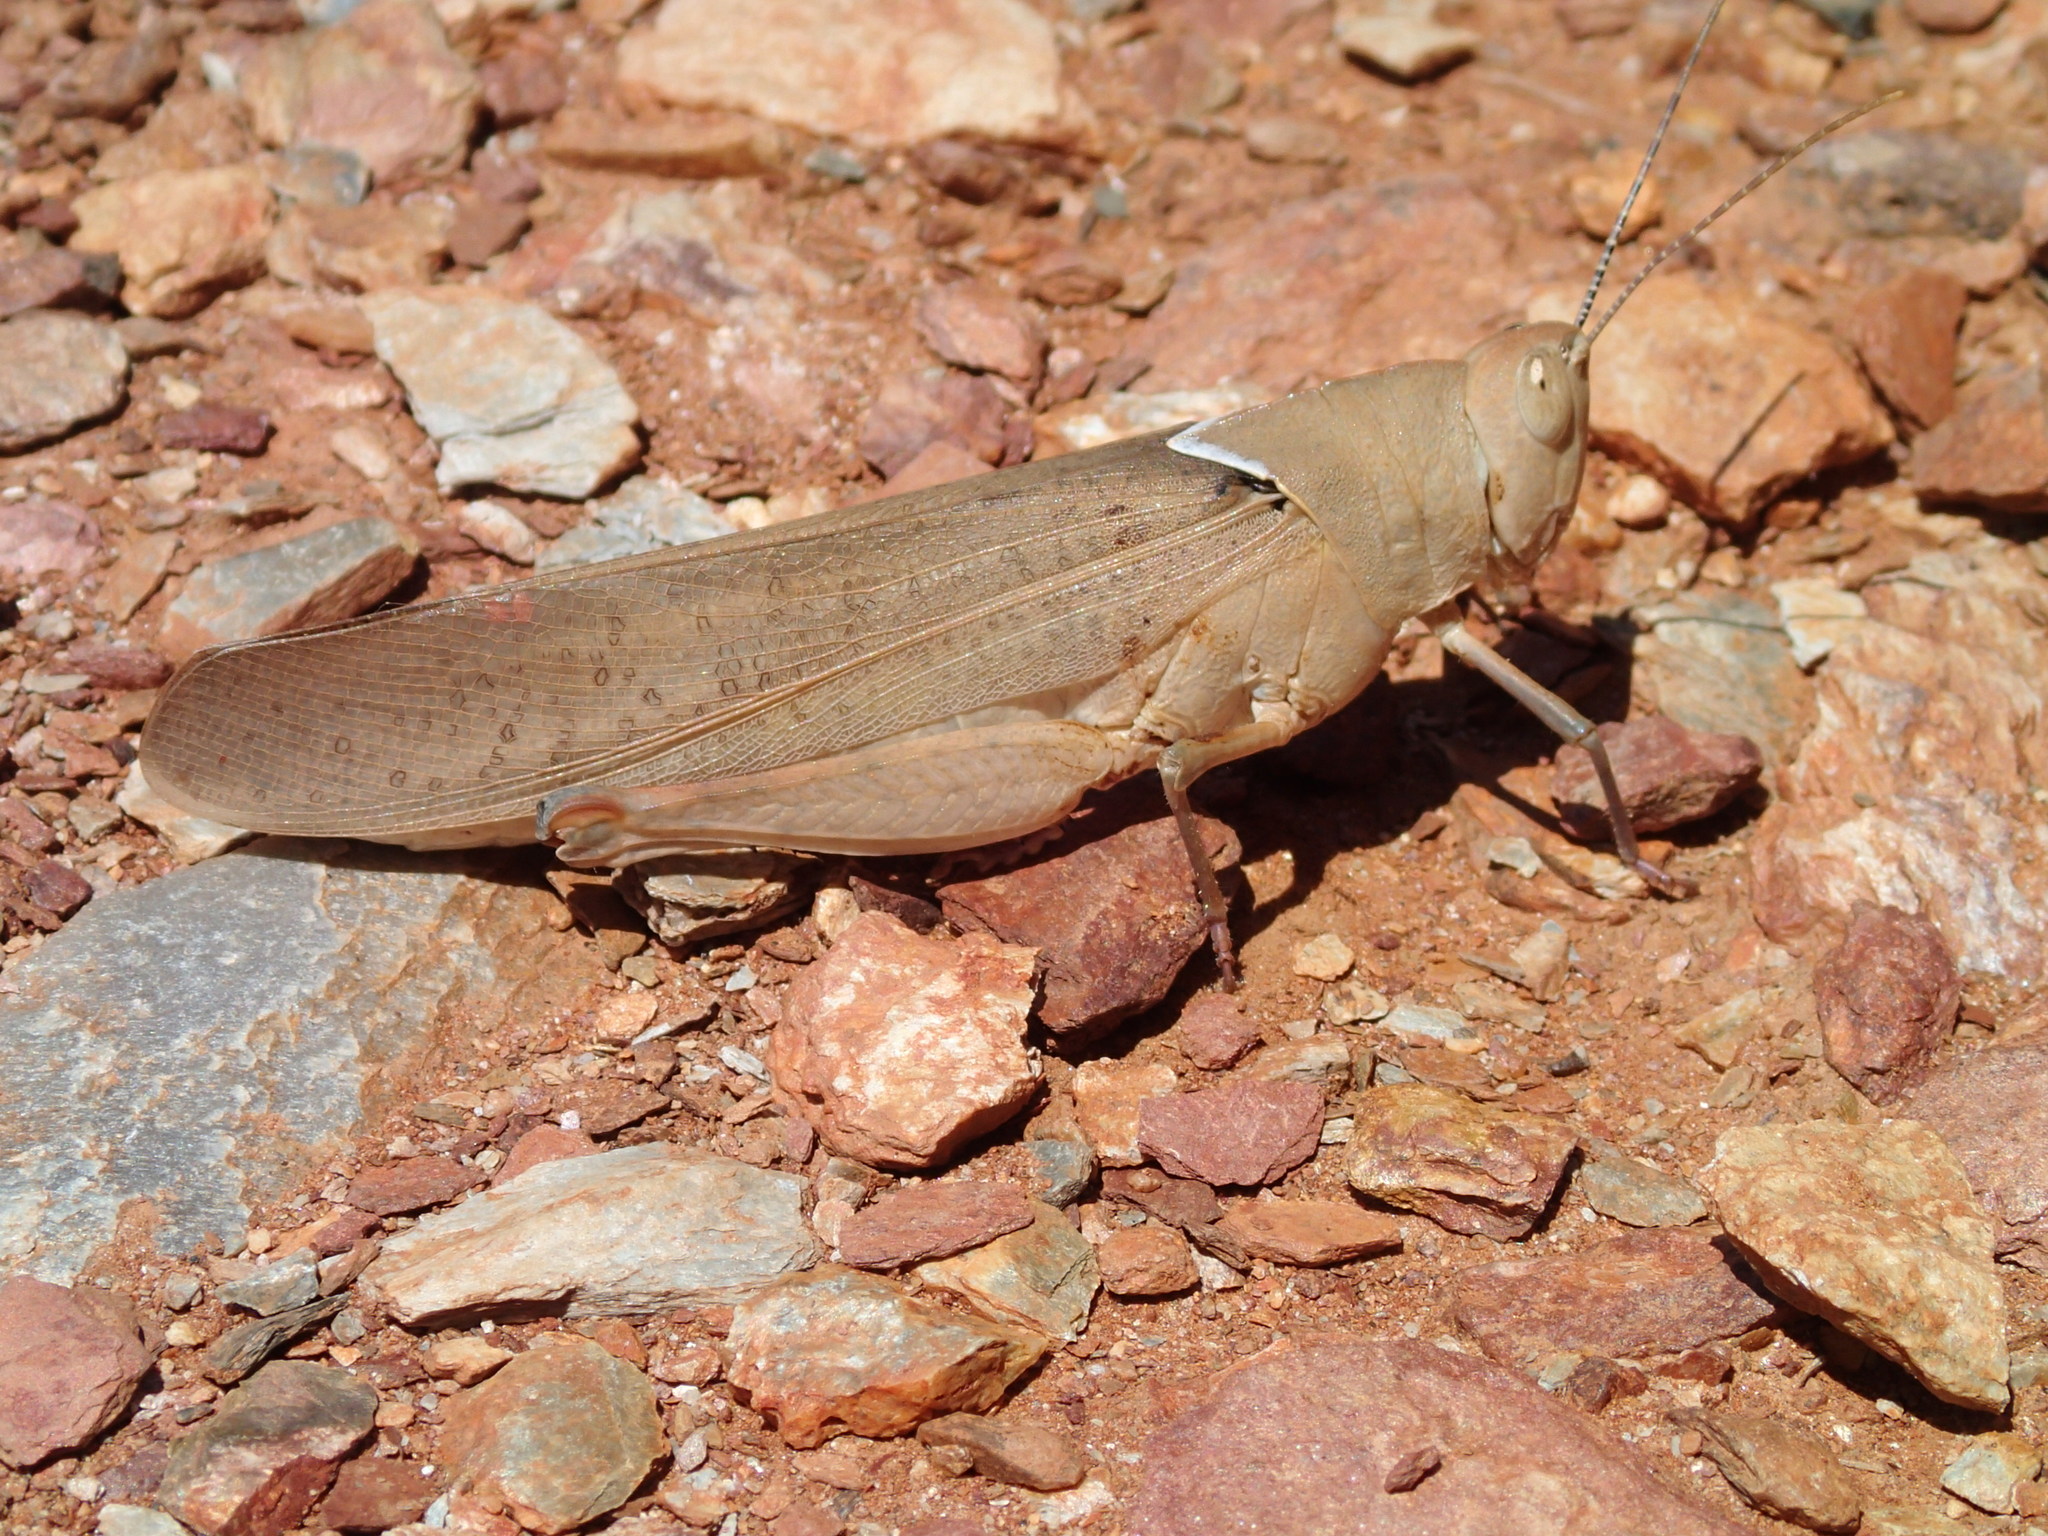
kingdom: Animalia
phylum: Arthropoda
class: Insecta
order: Orthoptera
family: Acrididae
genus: Goniaea
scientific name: Goniaea vocans
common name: Slender gumleaf grasshopper
